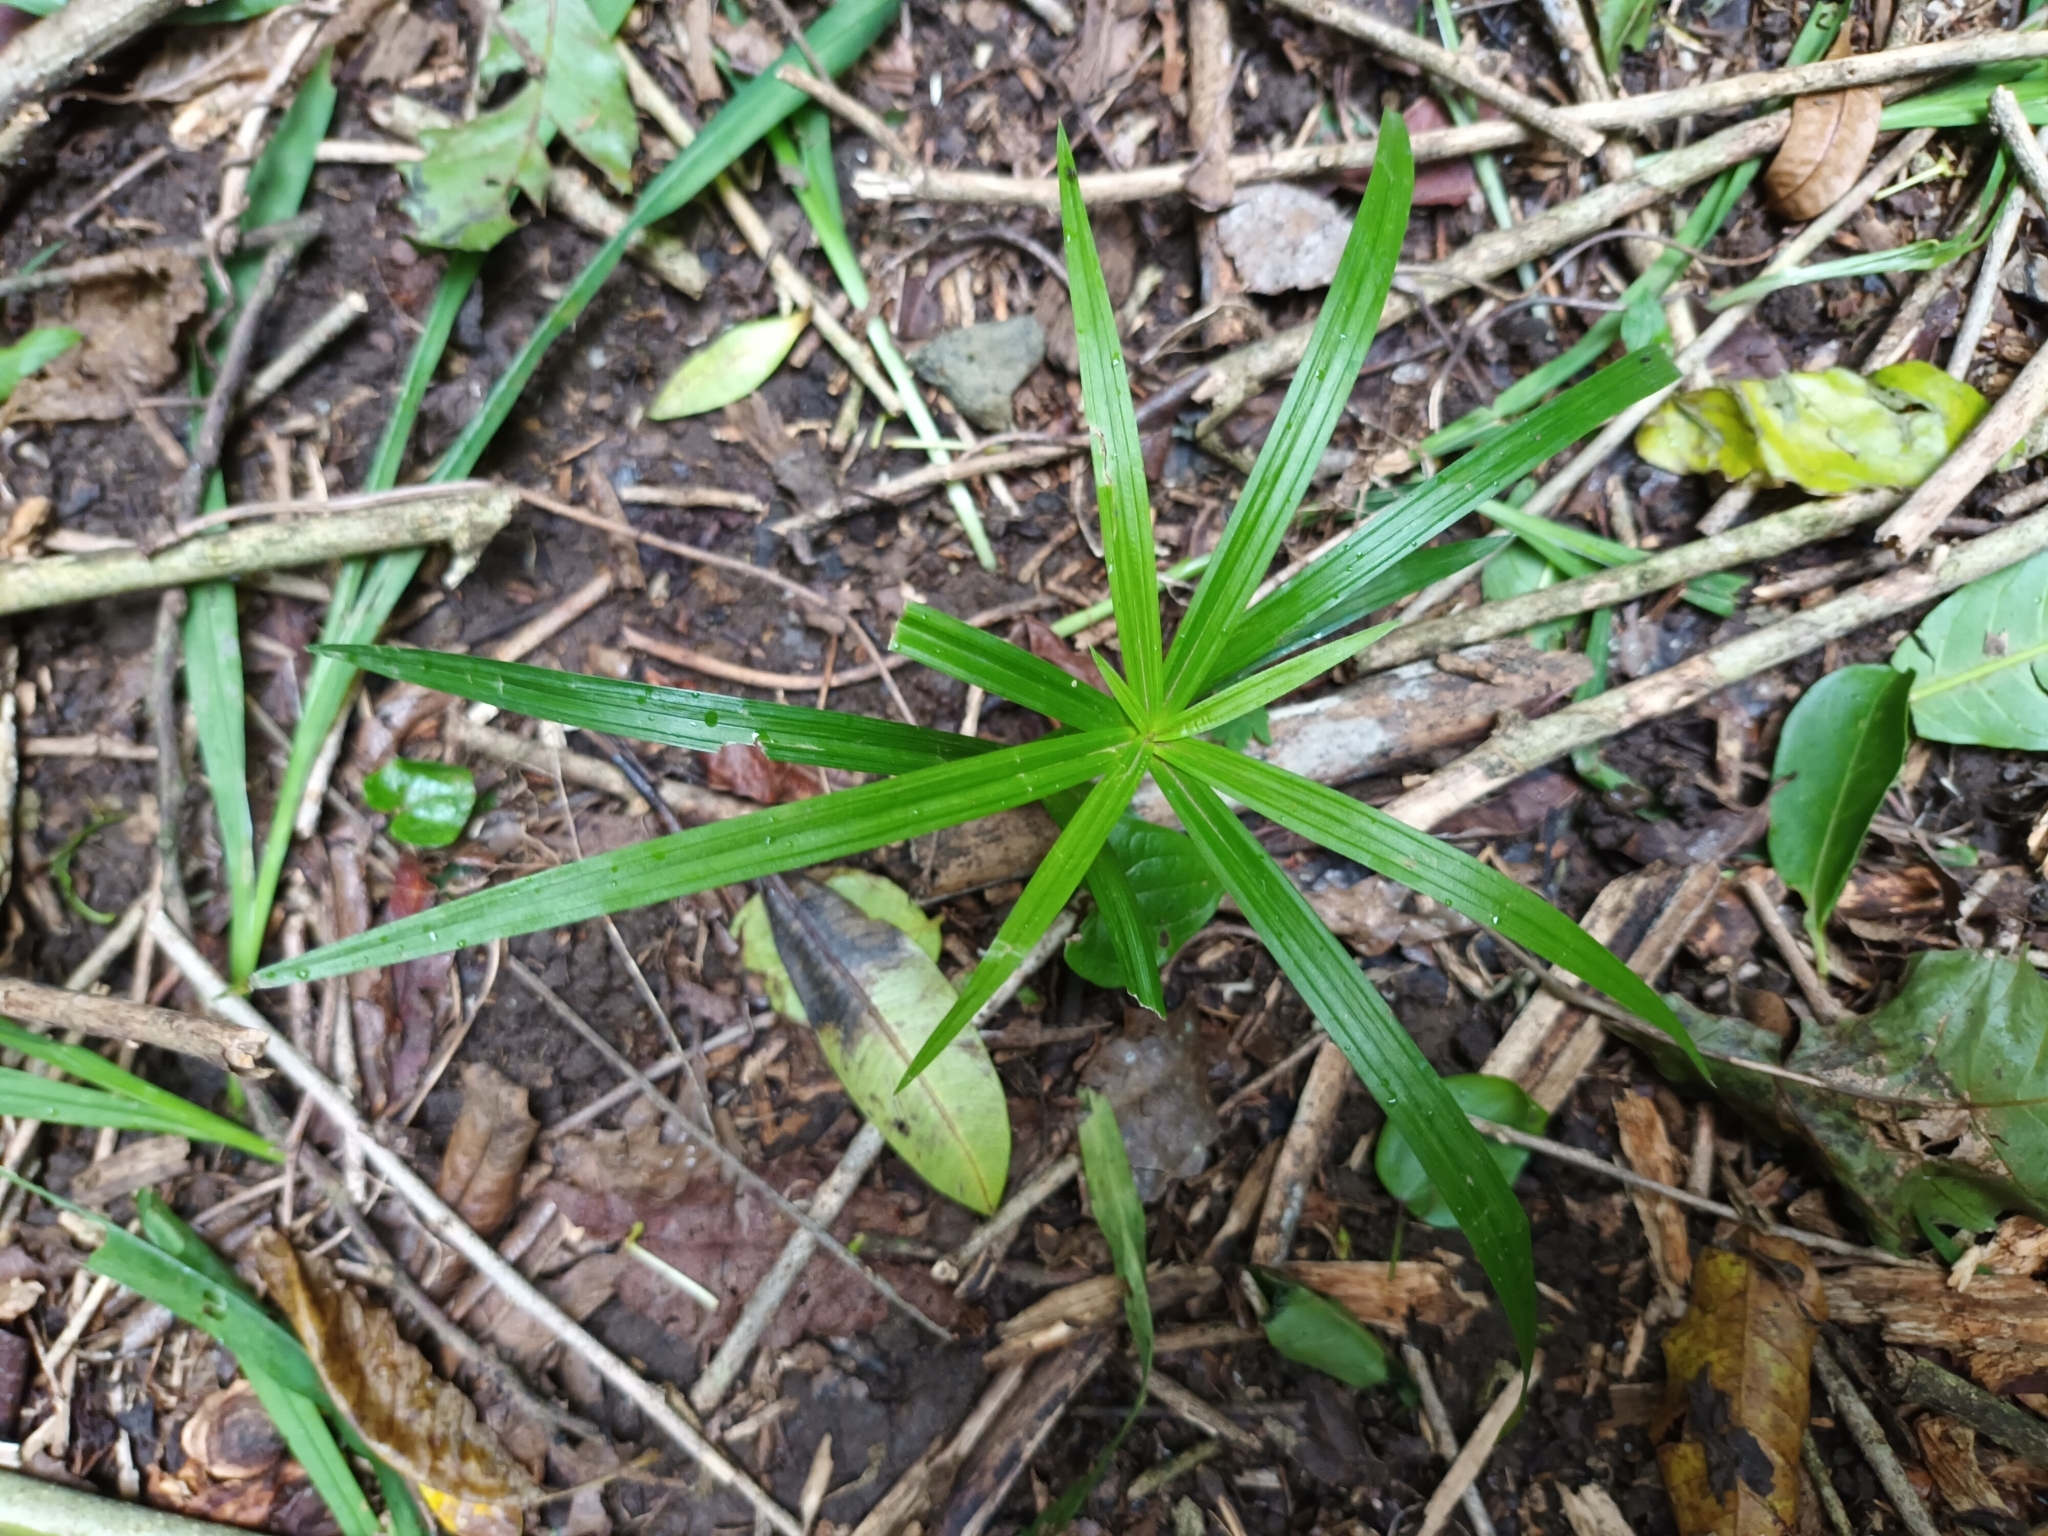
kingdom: Plantae
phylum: Tracheophyta
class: Liliopsida
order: Poales
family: Cyperaceae
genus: Cyperus
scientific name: Cyperus albostriatus
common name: Dwarf umbrella-grass
